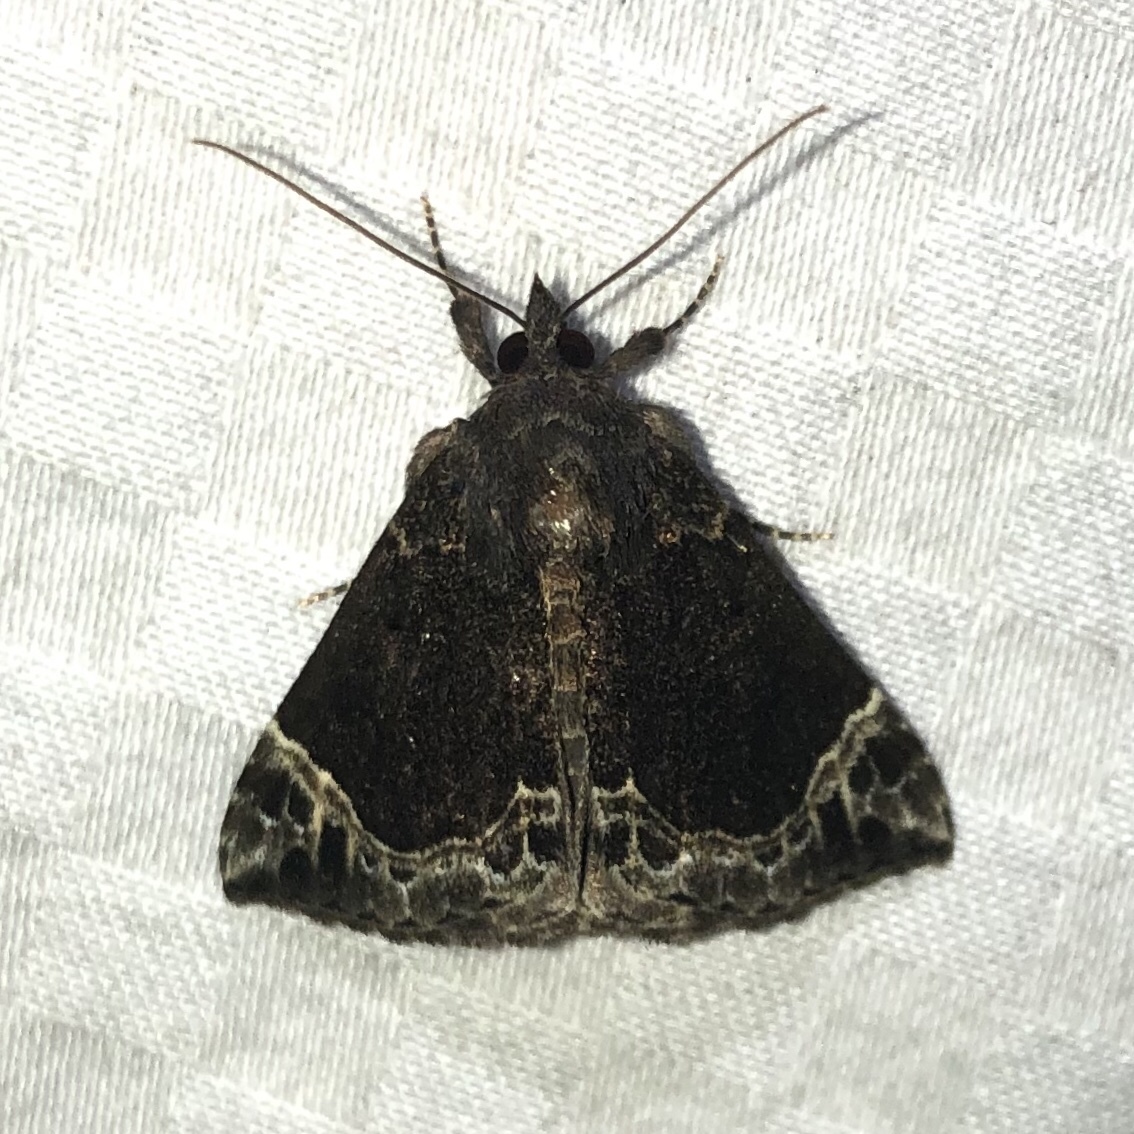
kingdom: Animalia
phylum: Arthropoda
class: Insecta
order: Lepidoptera
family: Erebidae
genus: Hypena
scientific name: Hypena abalienalis
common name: White-lined snout
